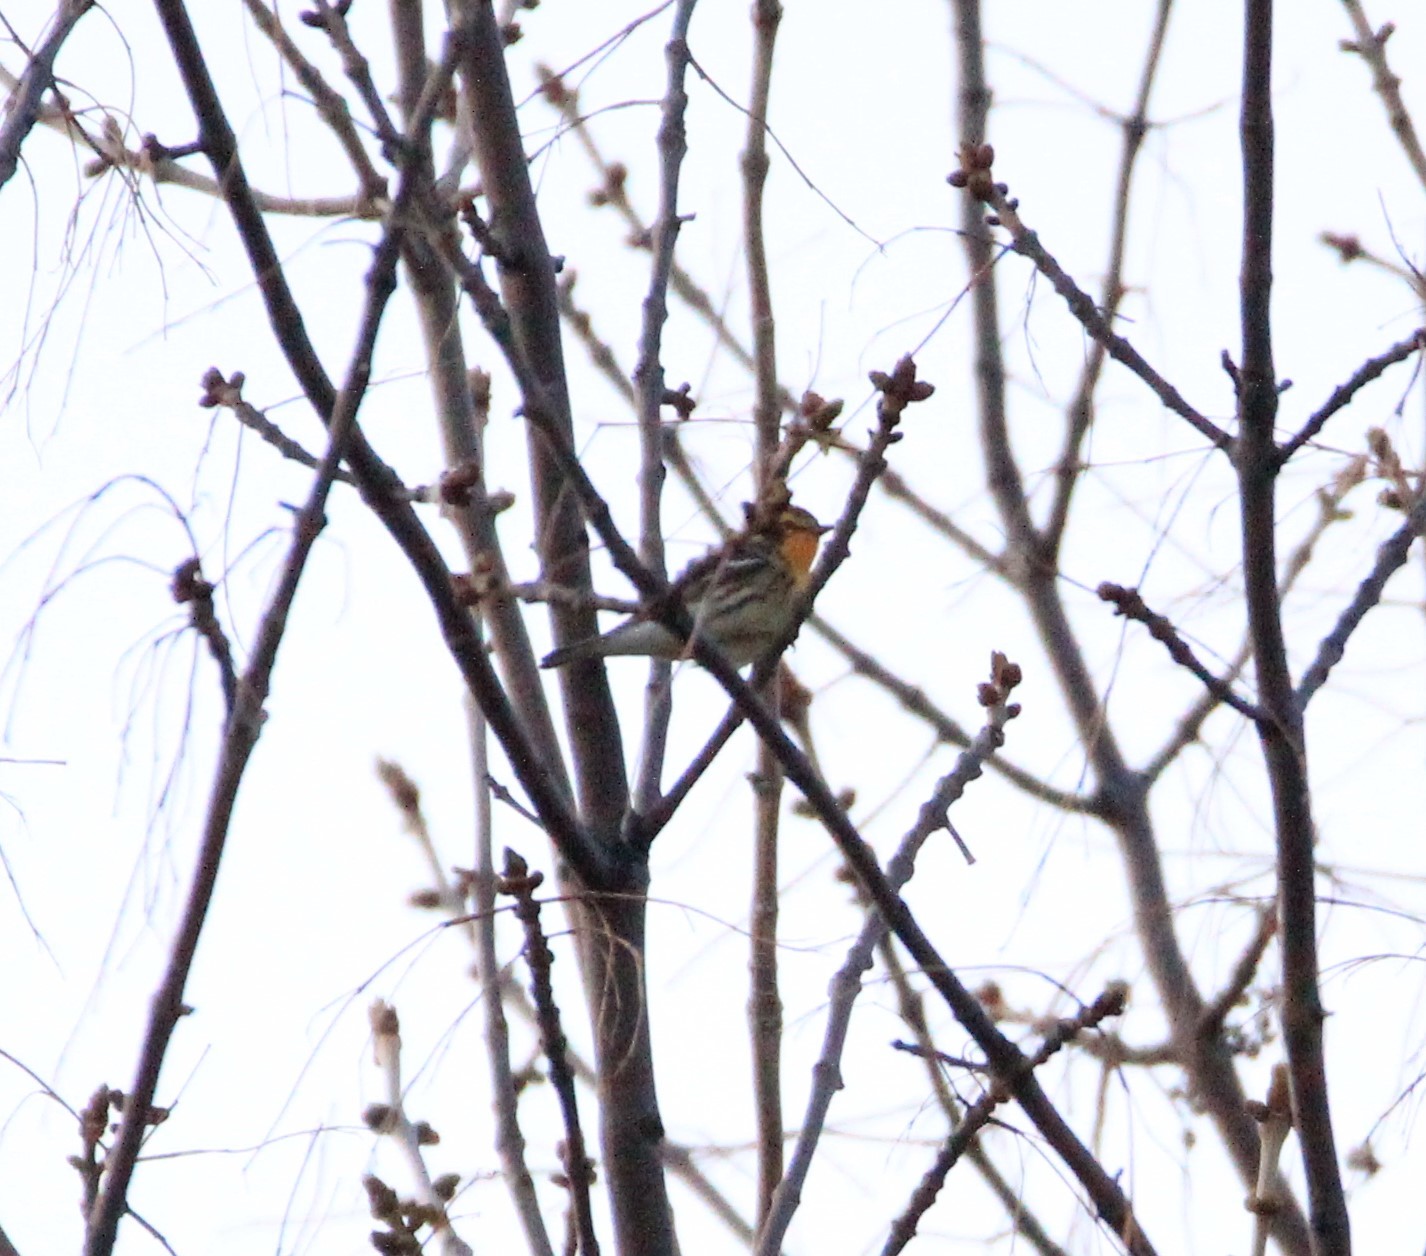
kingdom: Animalia
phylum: Chordata
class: Aves
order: Passeriformes
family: Parulidae
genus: Setophaga
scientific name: Setophaga fusca
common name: Blackburnian warbler
